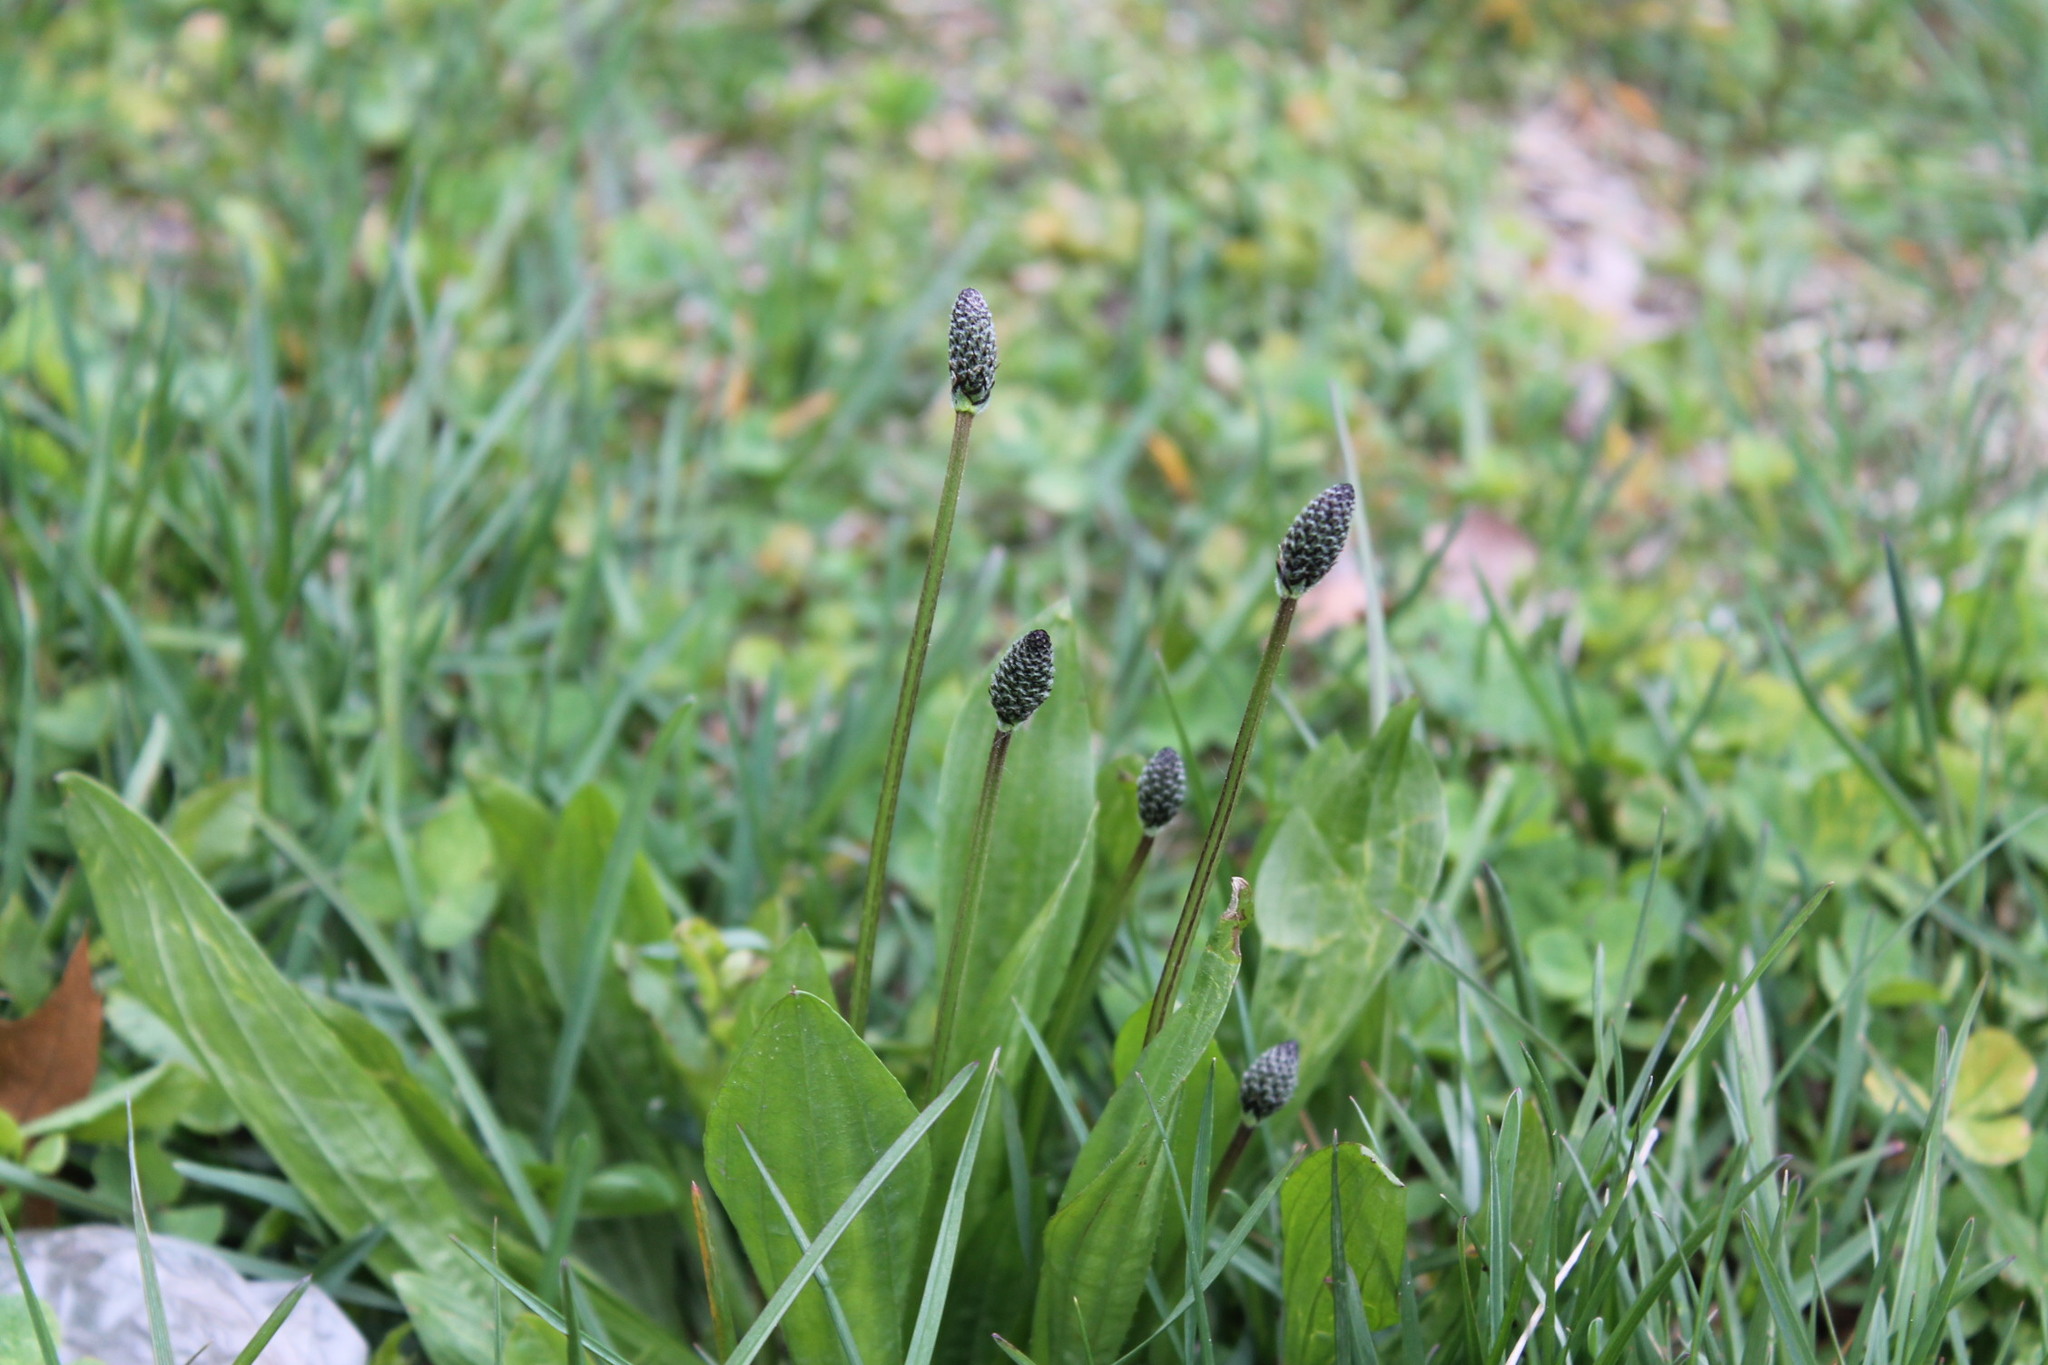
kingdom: Plantae
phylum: Tracheophyta
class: Magnoliopsida
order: Lamiales
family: Plantaginaceae
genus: Plantago
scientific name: Plantago lanceolata
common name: Ribwort plantain
